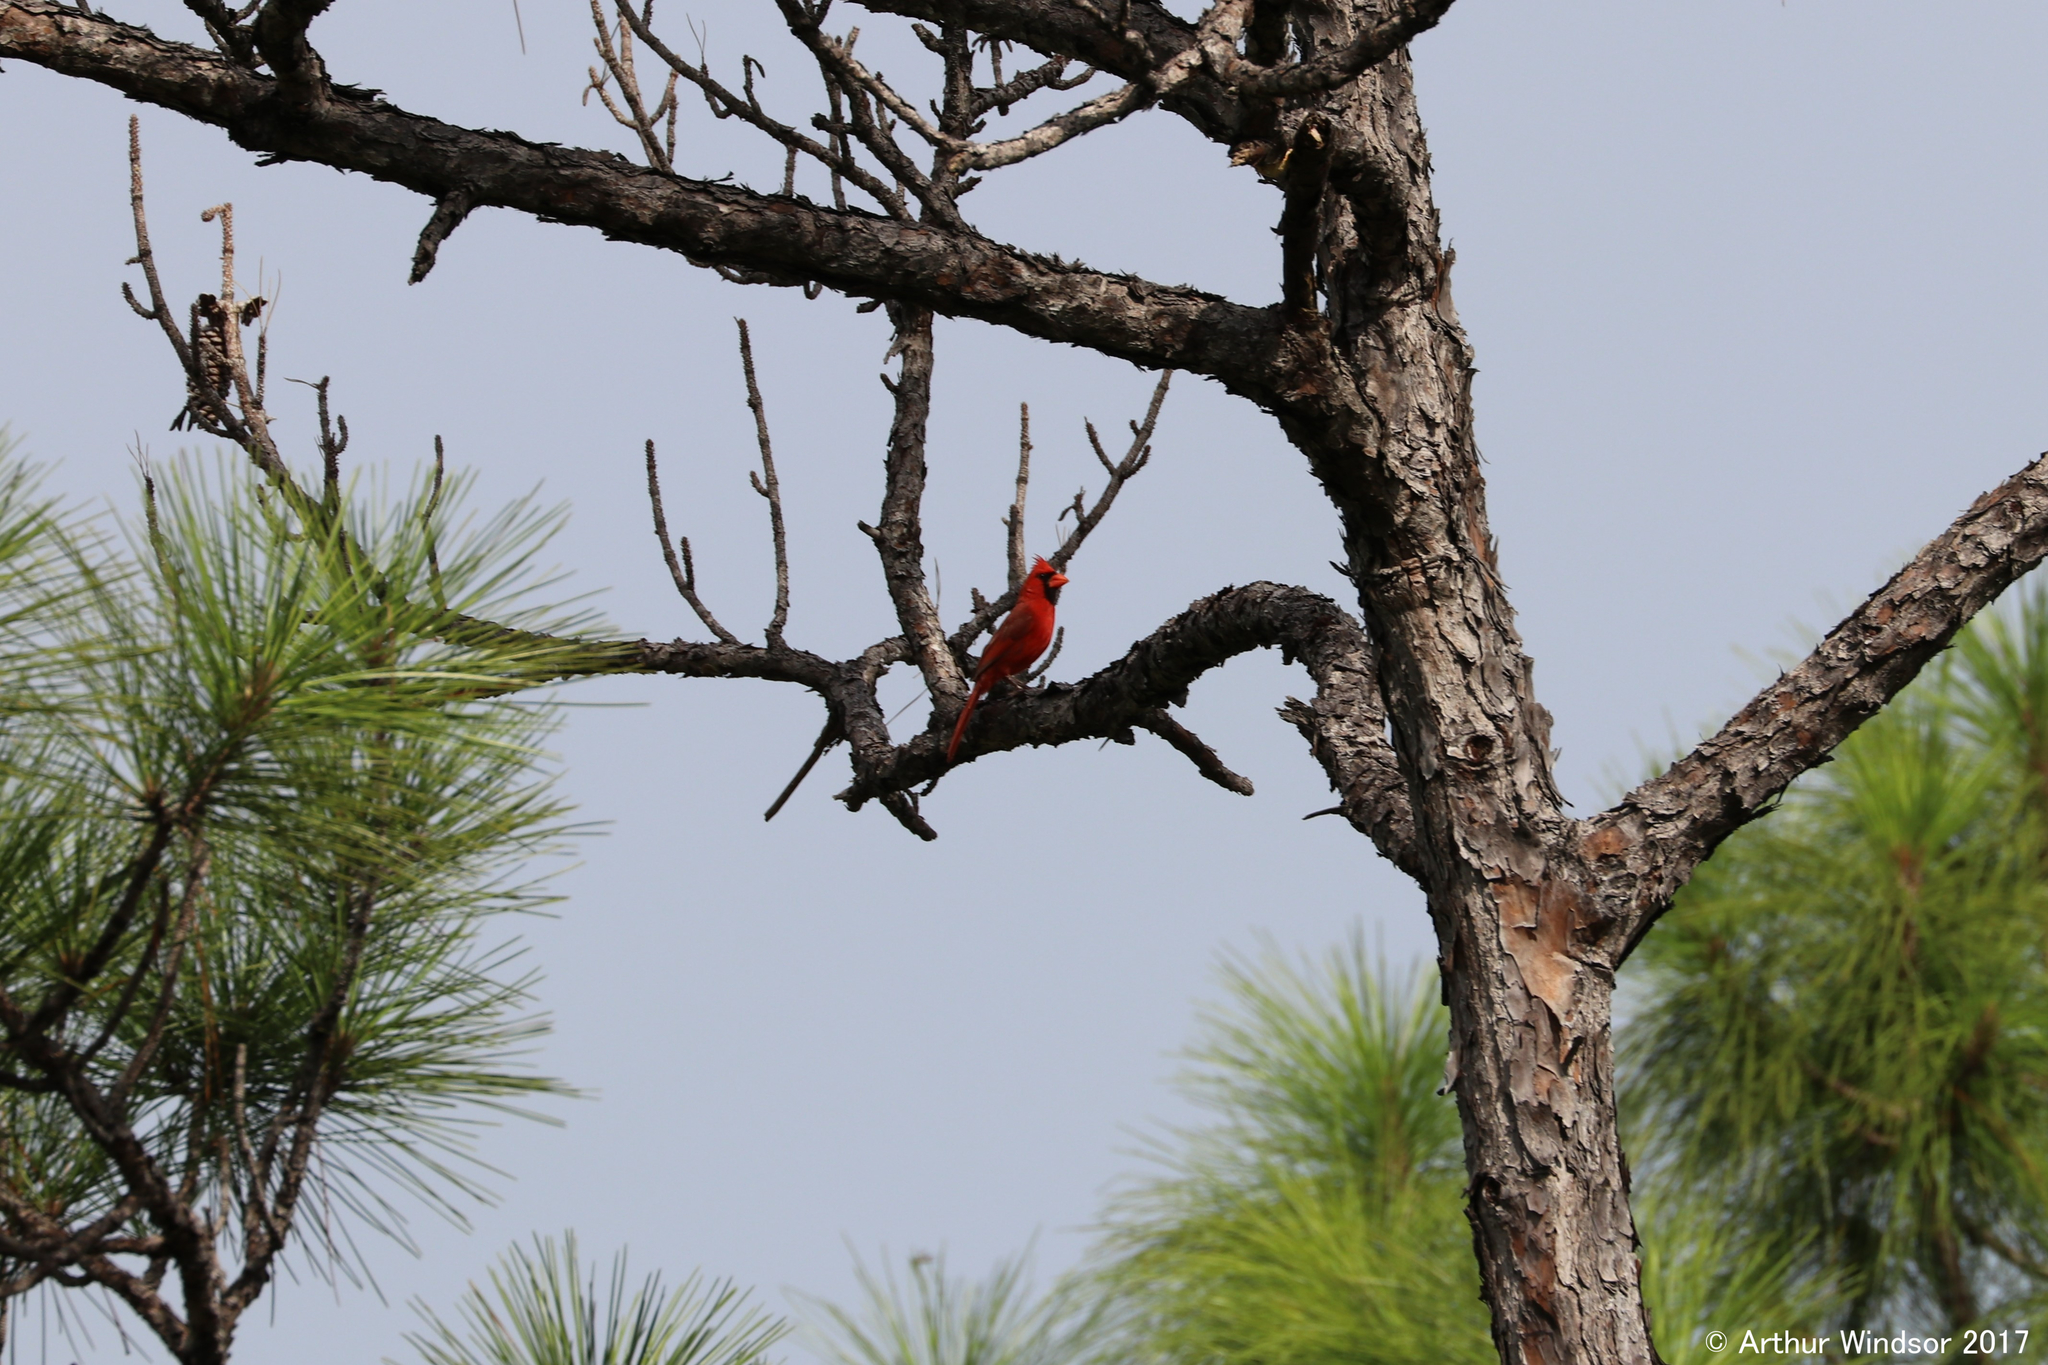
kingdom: Animalia
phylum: Chordata
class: Aves
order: Passeriformes
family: Cardinalidae
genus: Cardinalis
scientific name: Cardinalis cardinalis
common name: Northern cardinal
